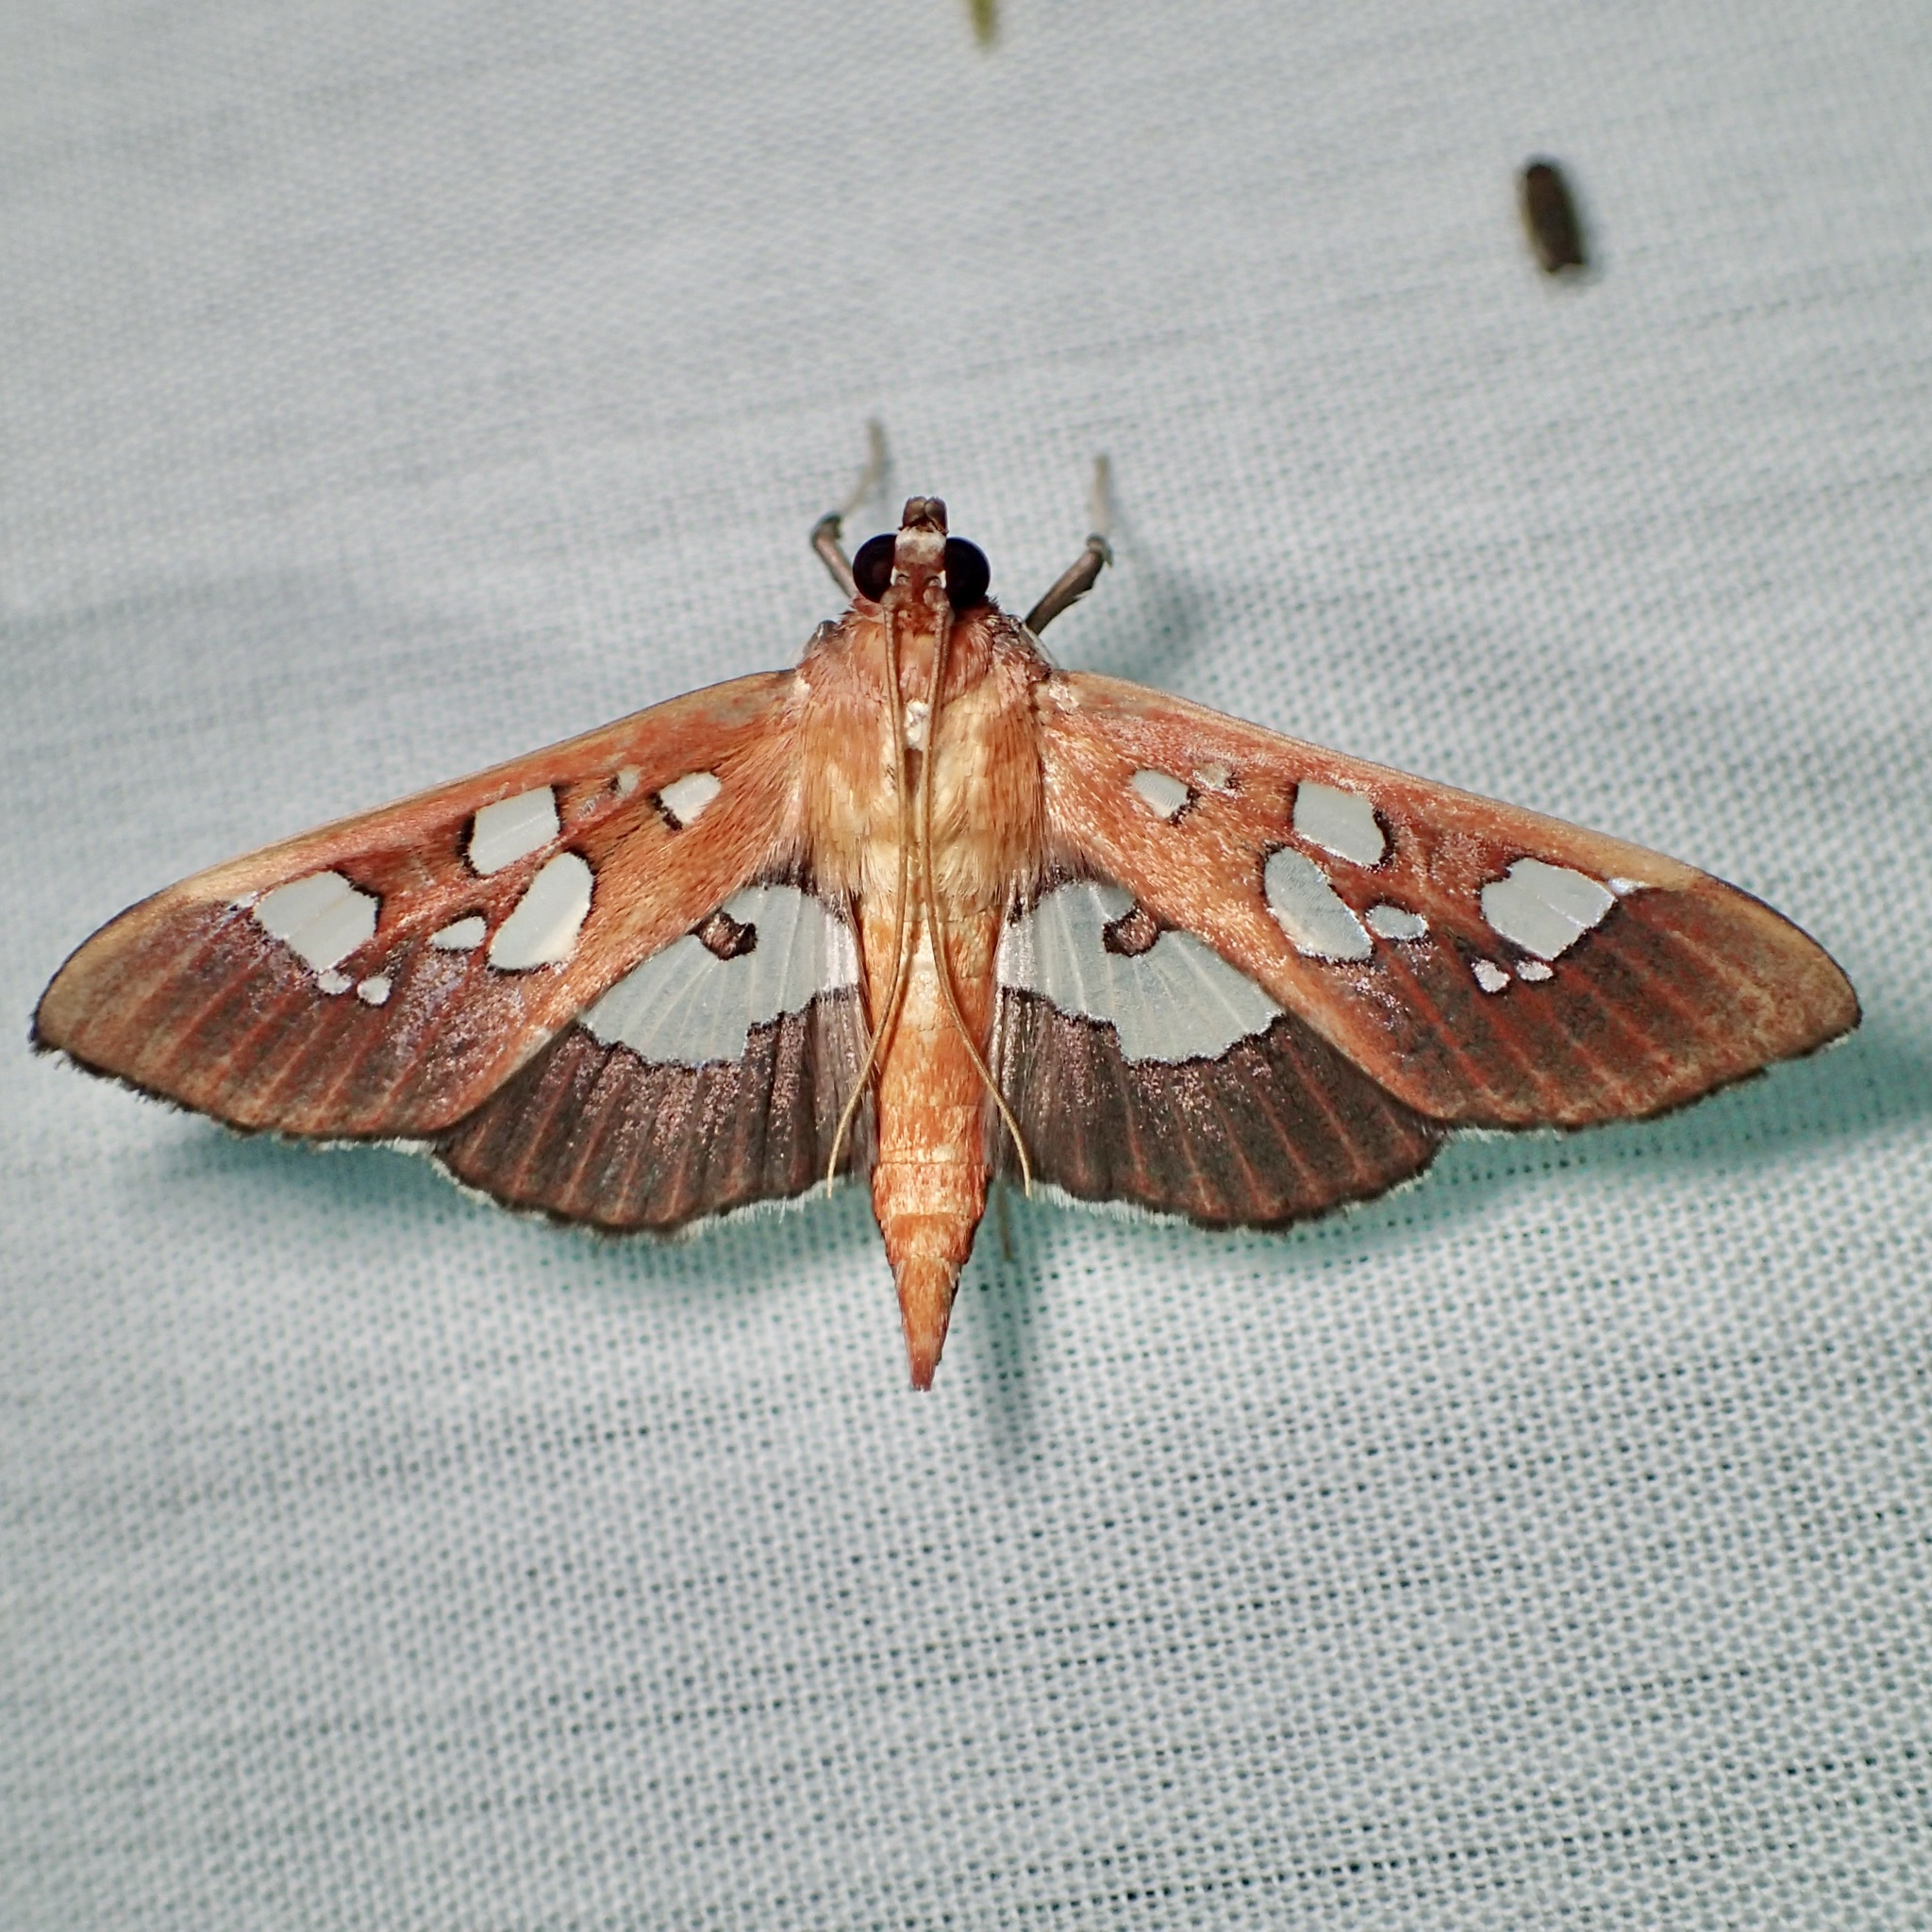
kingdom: Animalia
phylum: Arthropoda
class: Insecta
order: Lepidoptera
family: Crambidae
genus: Phostria
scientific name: Phostria tedea
